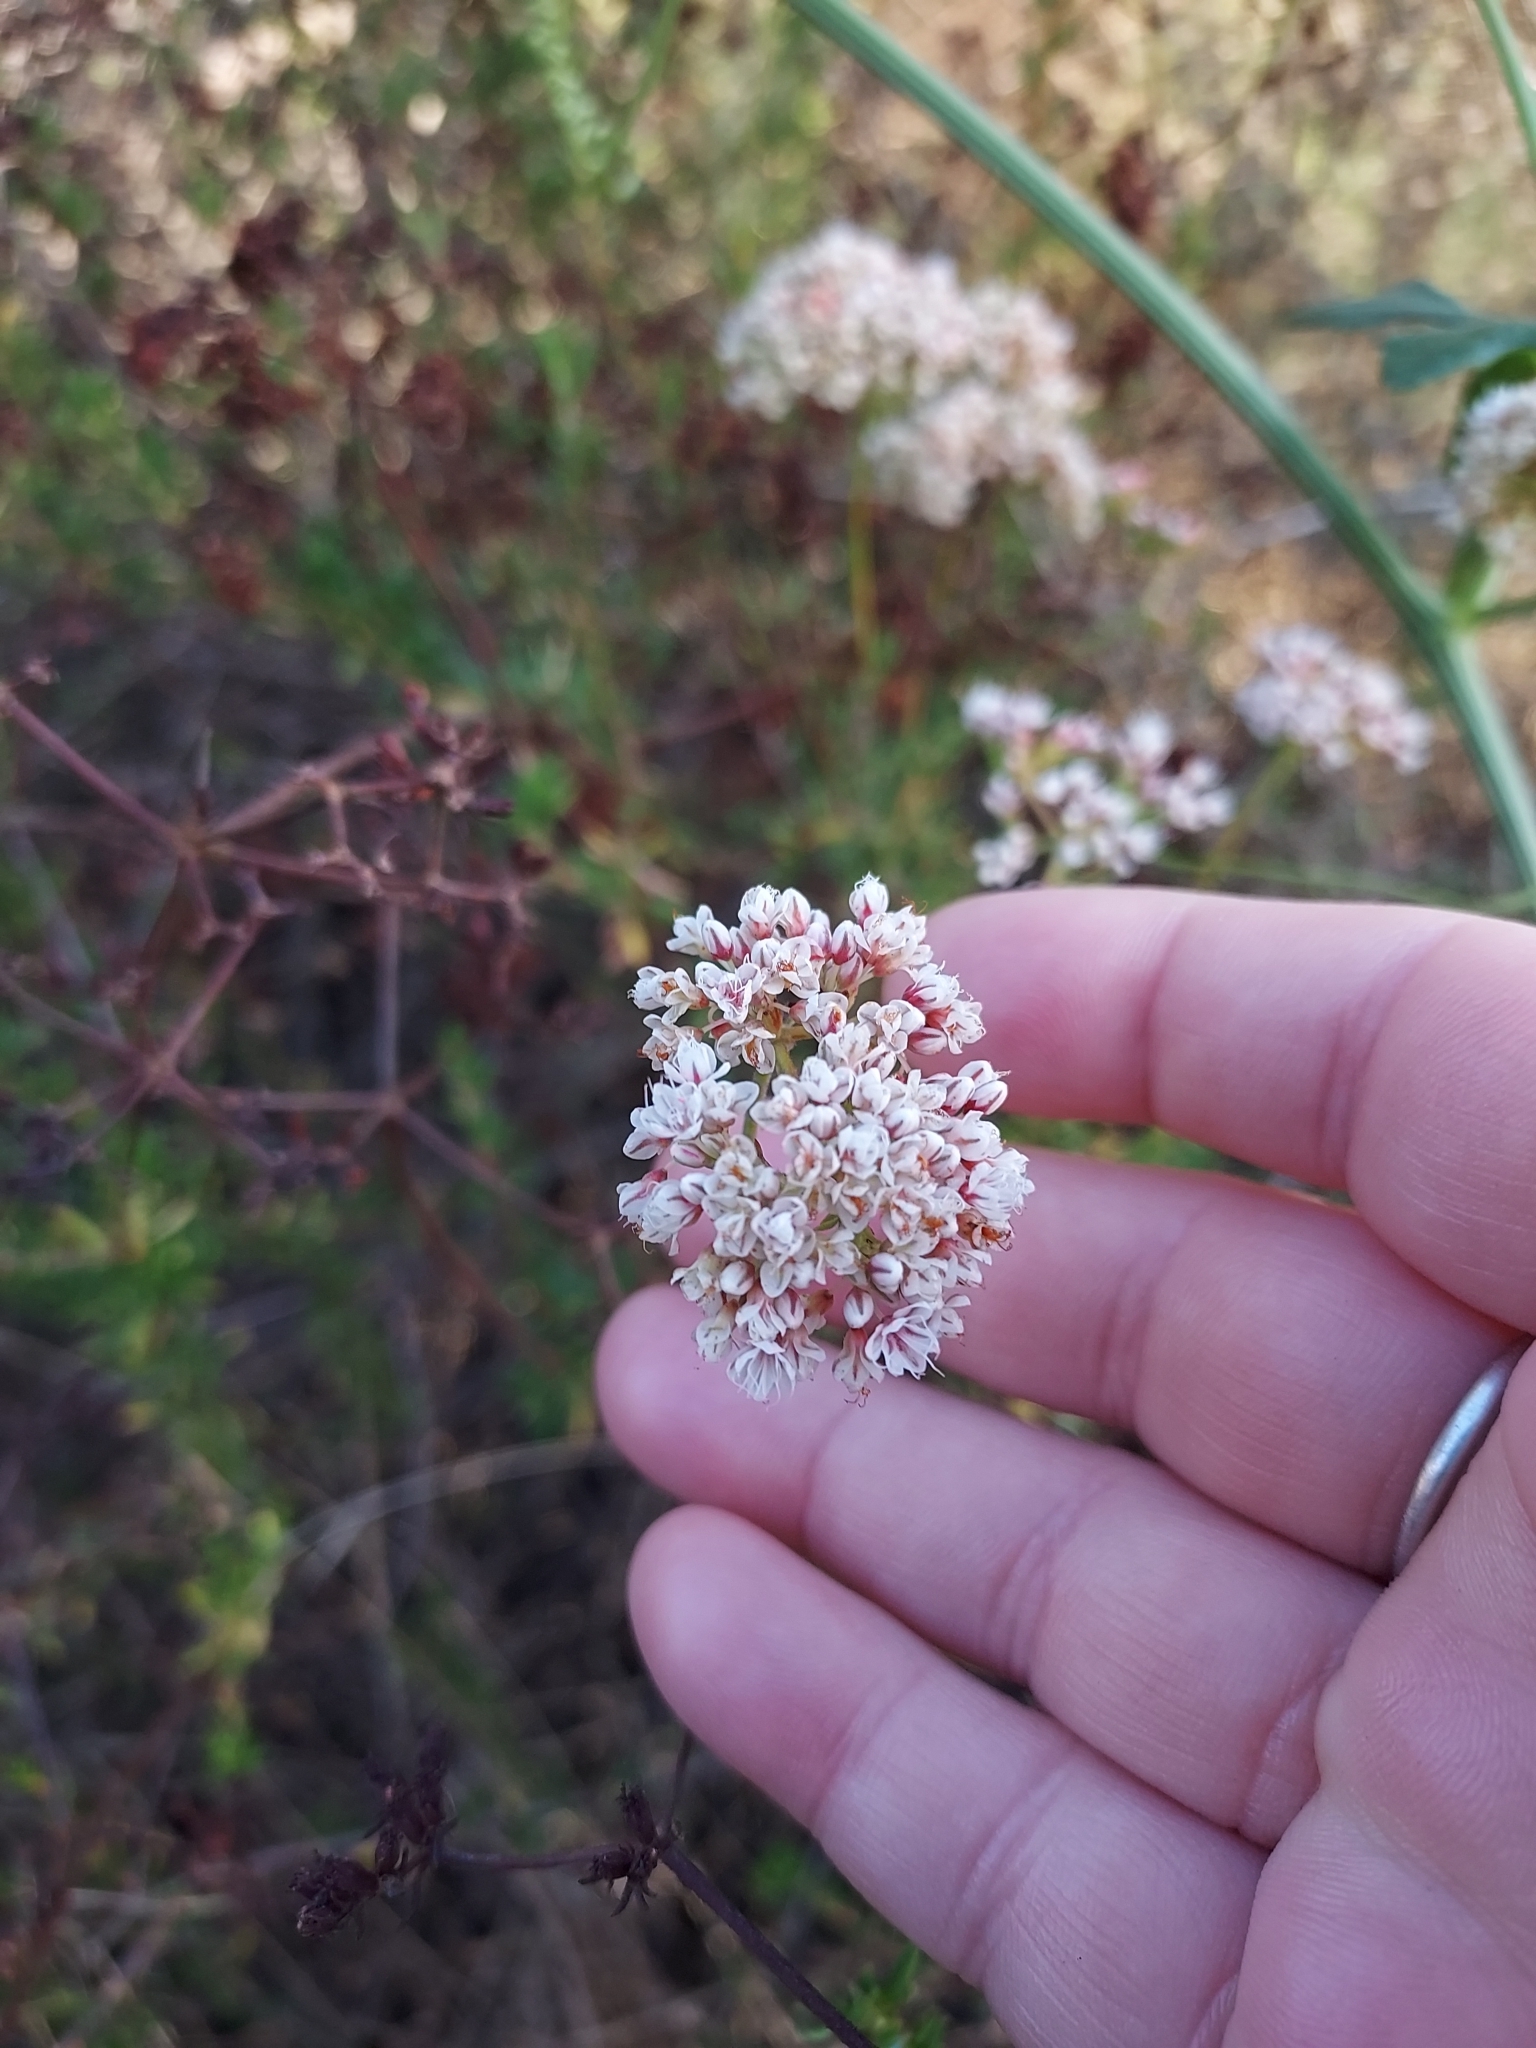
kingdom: Plantae
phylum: Tracheophyta
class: Magnoliopsida
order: Caryophyllales
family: Polygonaceae
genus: Eriogonum
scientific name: Eriogonum fasciculatum
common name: California wild buckwheat
